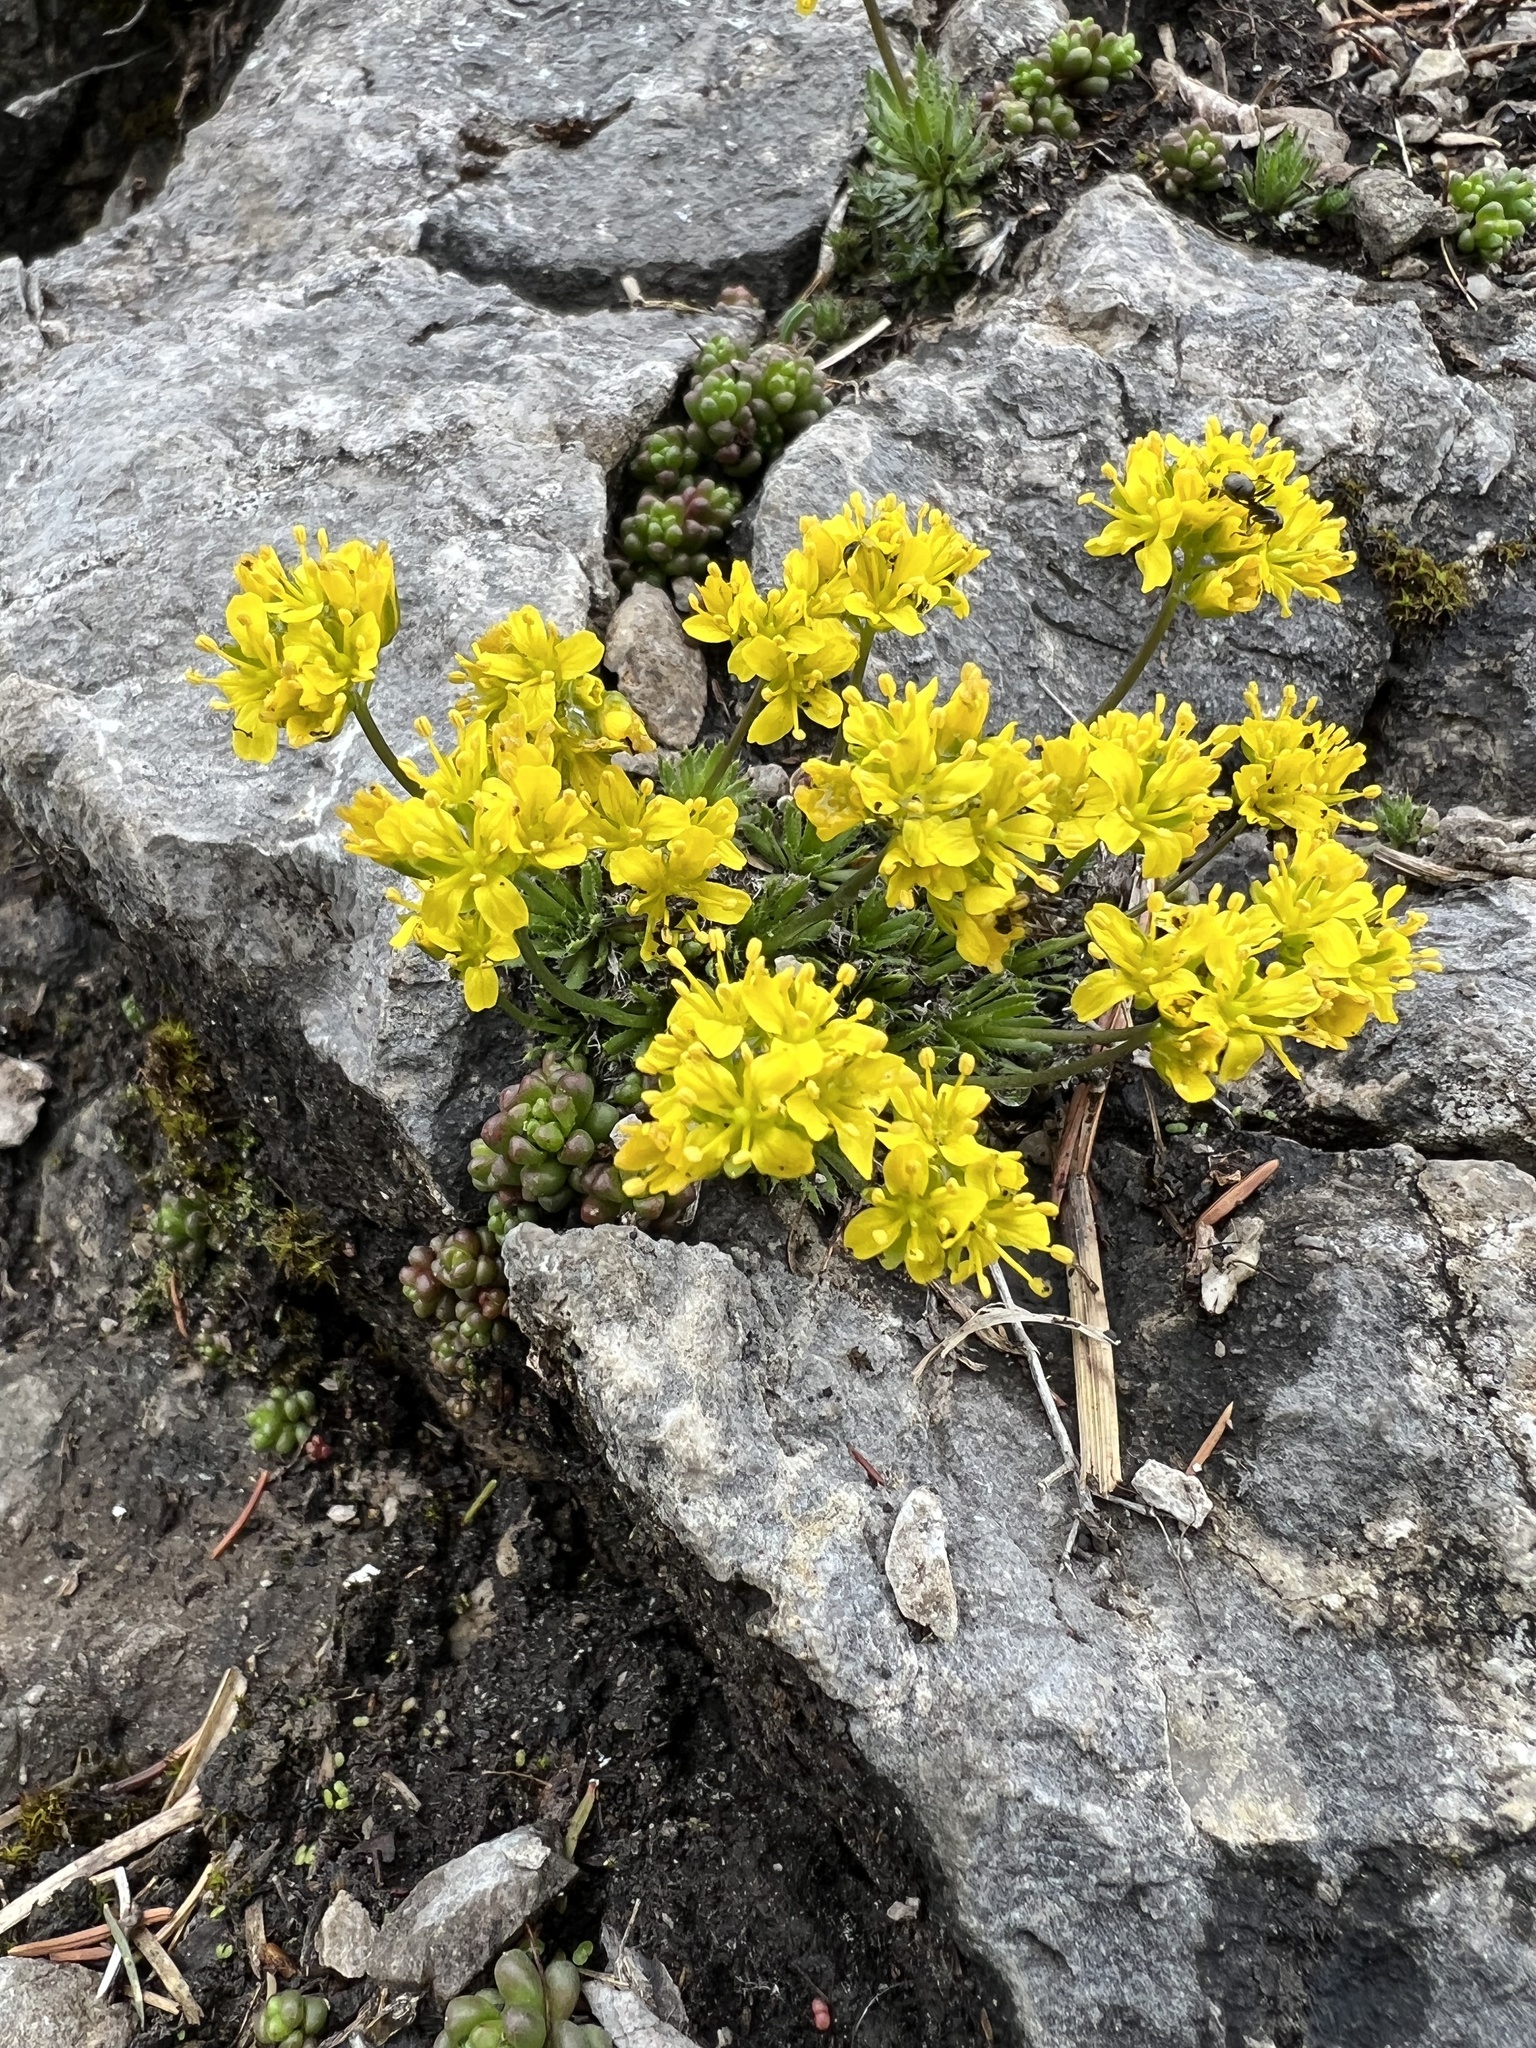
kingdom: Plantae
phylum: Tracheophyta
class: Magnoliopsida
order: Brassicales
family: Brassicaceae
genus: Draba
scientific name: Draba aizoides
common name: Yellow whitlowgrass
